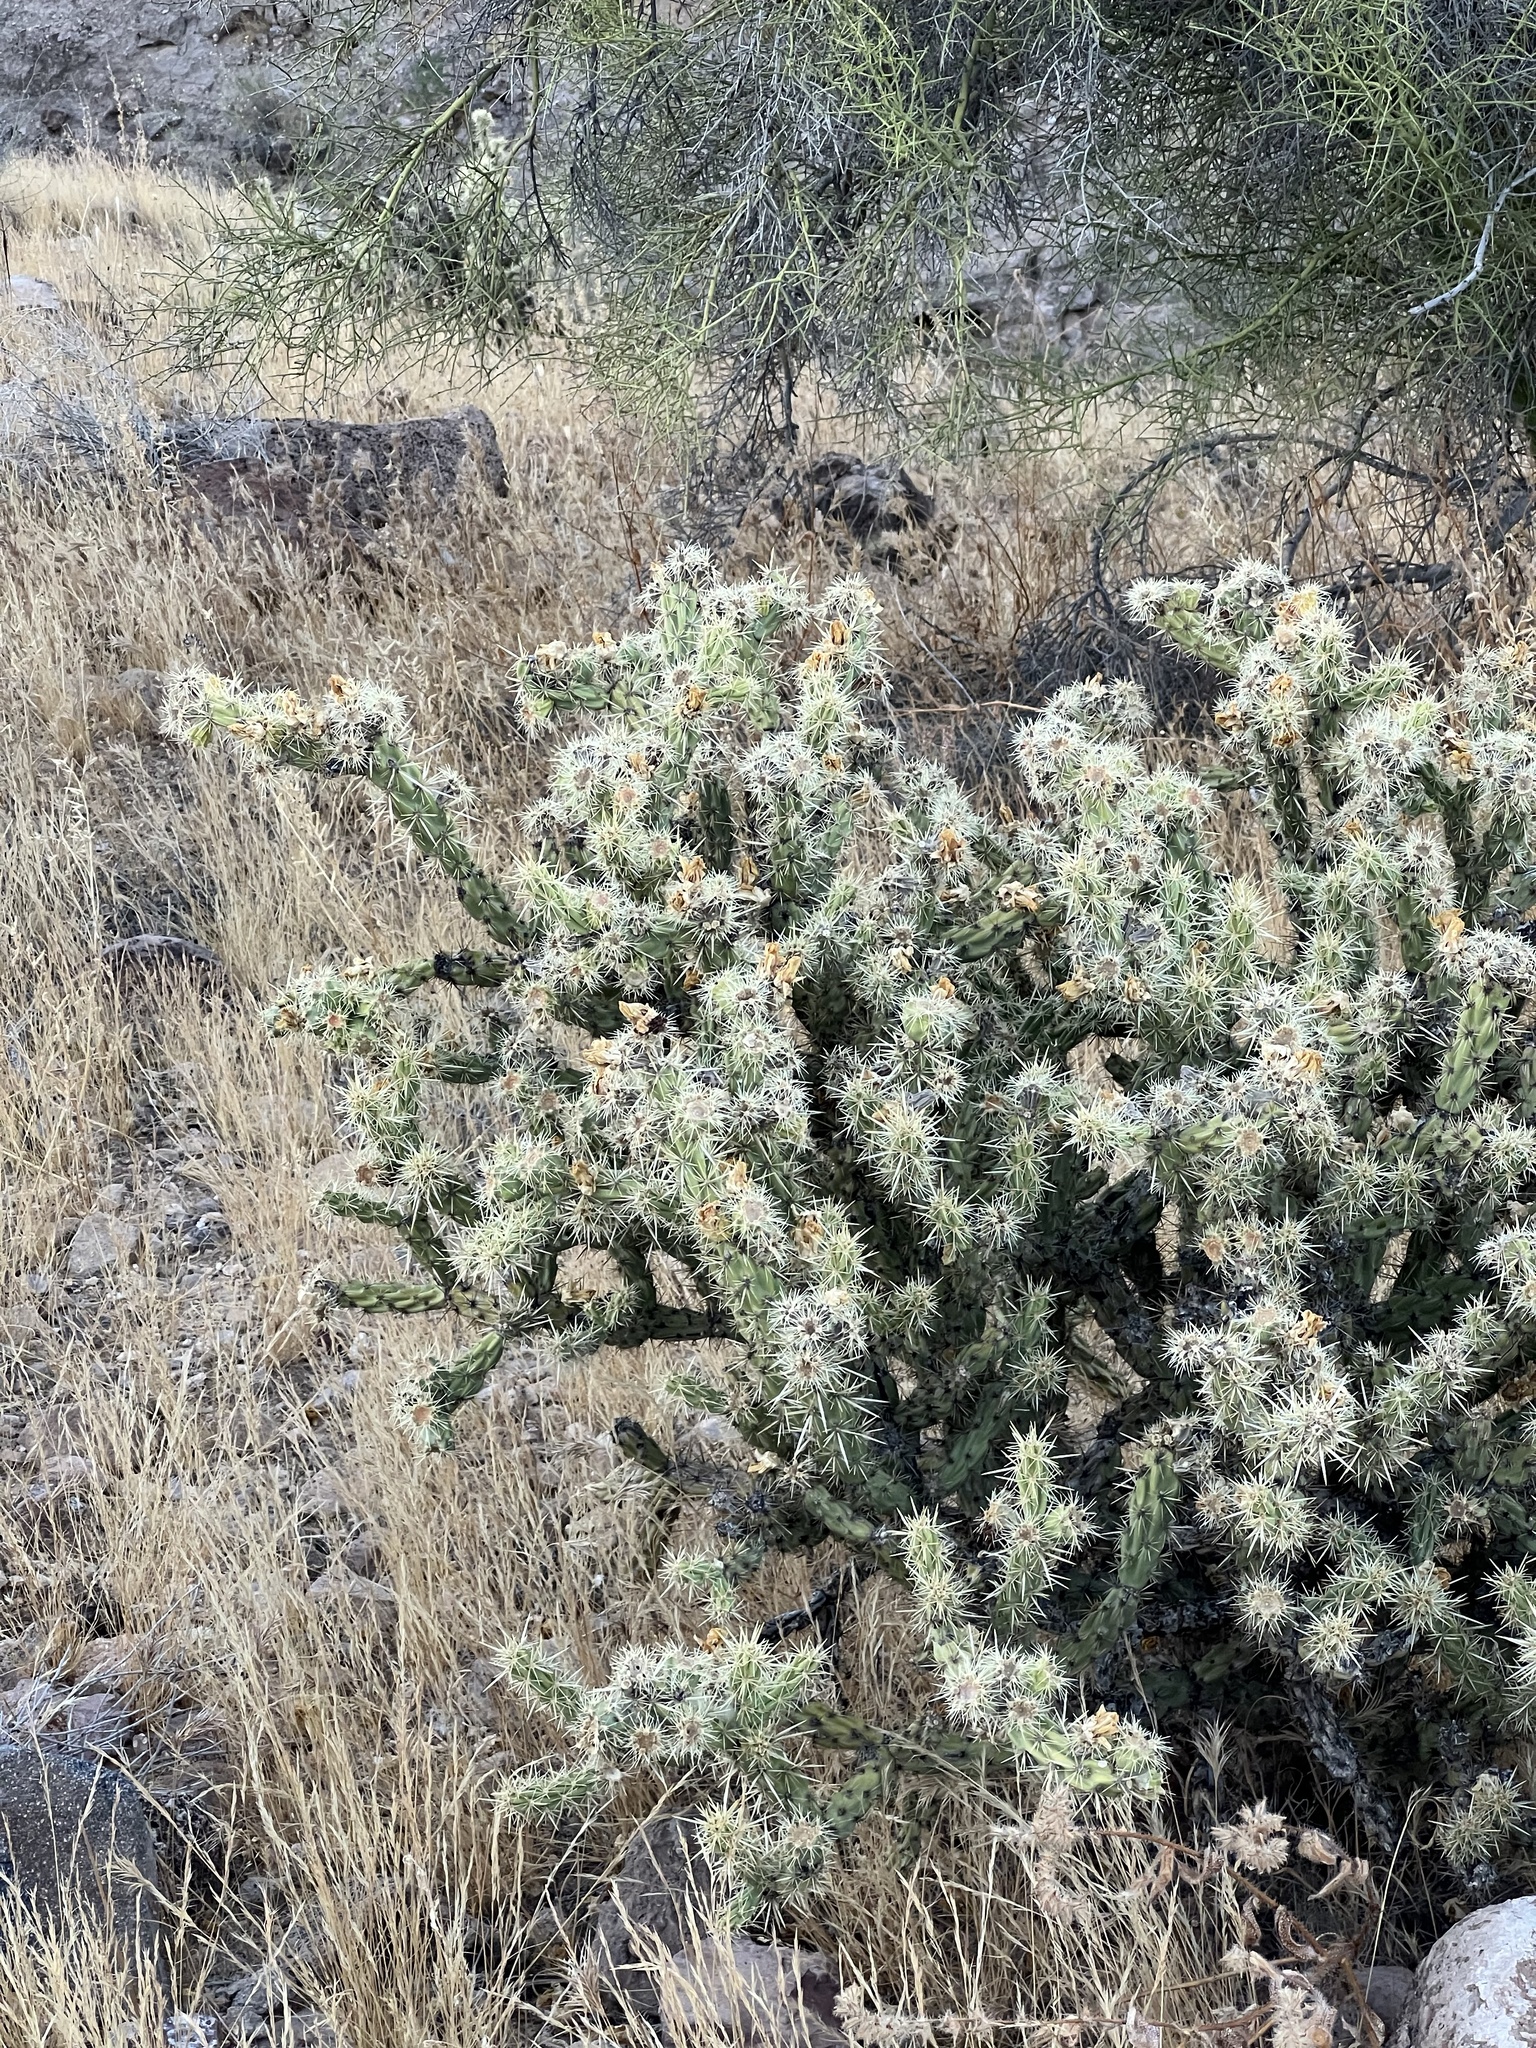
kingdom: Plantae
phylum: Tracheophyta
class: Magnoliopsida
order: Caryophyllales
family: Cactaceae
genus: Cylindropuntia
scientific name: Cylindropuntia acanthocarpa
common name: Buckhorn cholla
